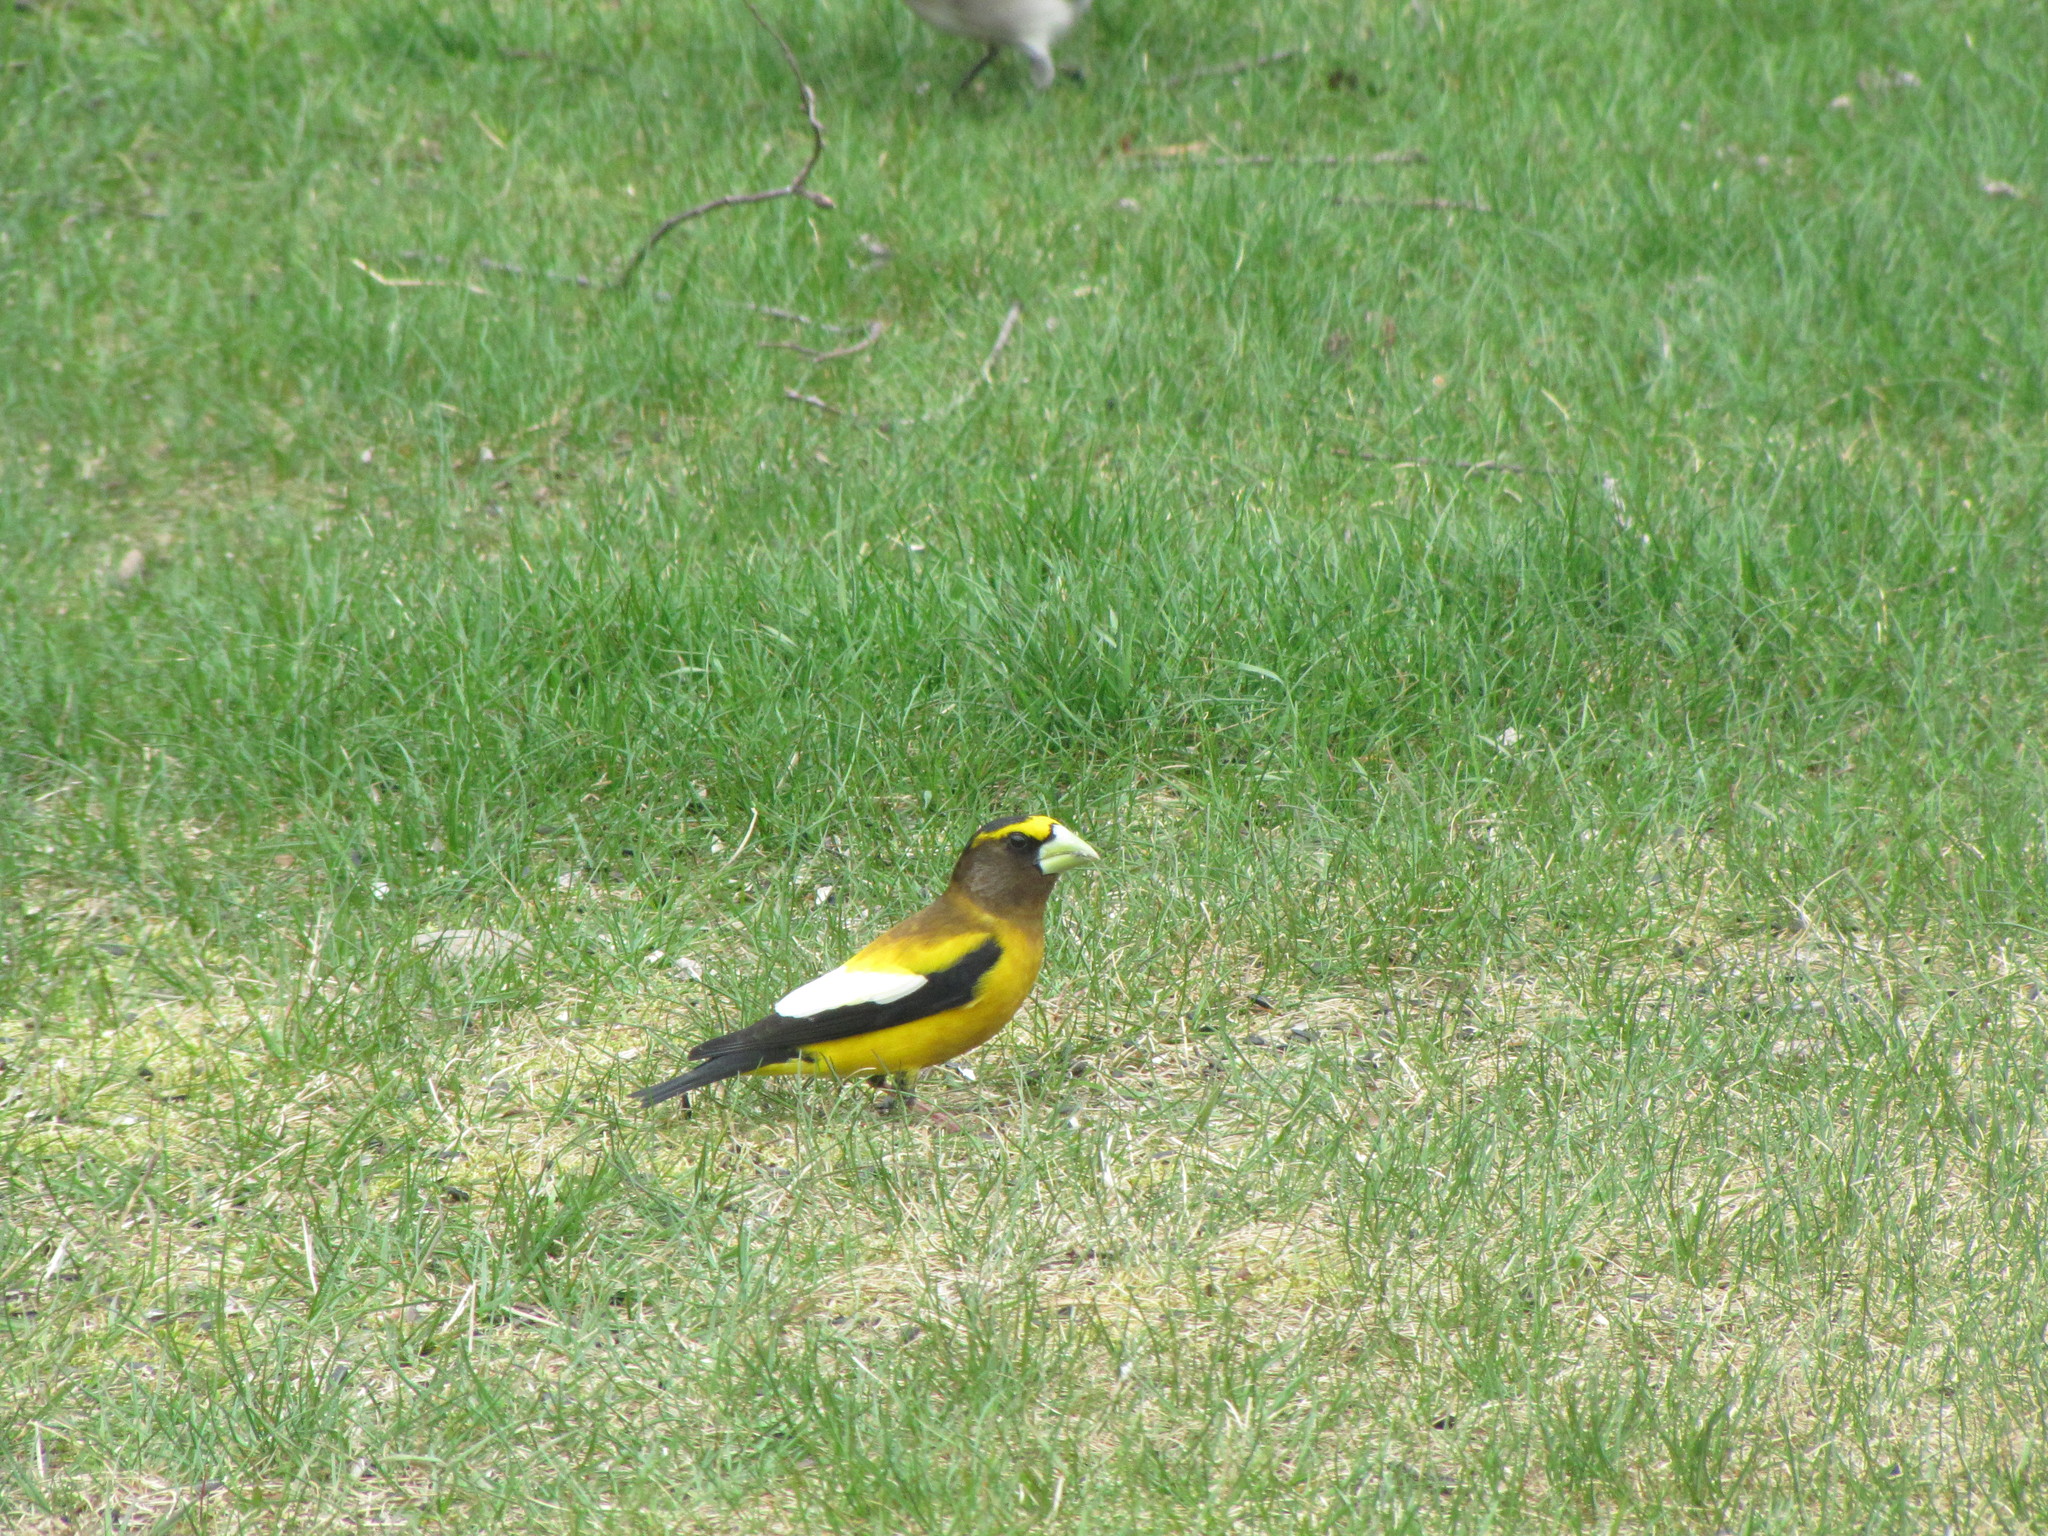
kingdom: Animalia
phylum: Chordata
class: Aves
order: Passeriformes
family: Fringillidae
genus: Hesperiphona
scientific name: Hesperiphona vespertina
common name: Evening grosbeak
